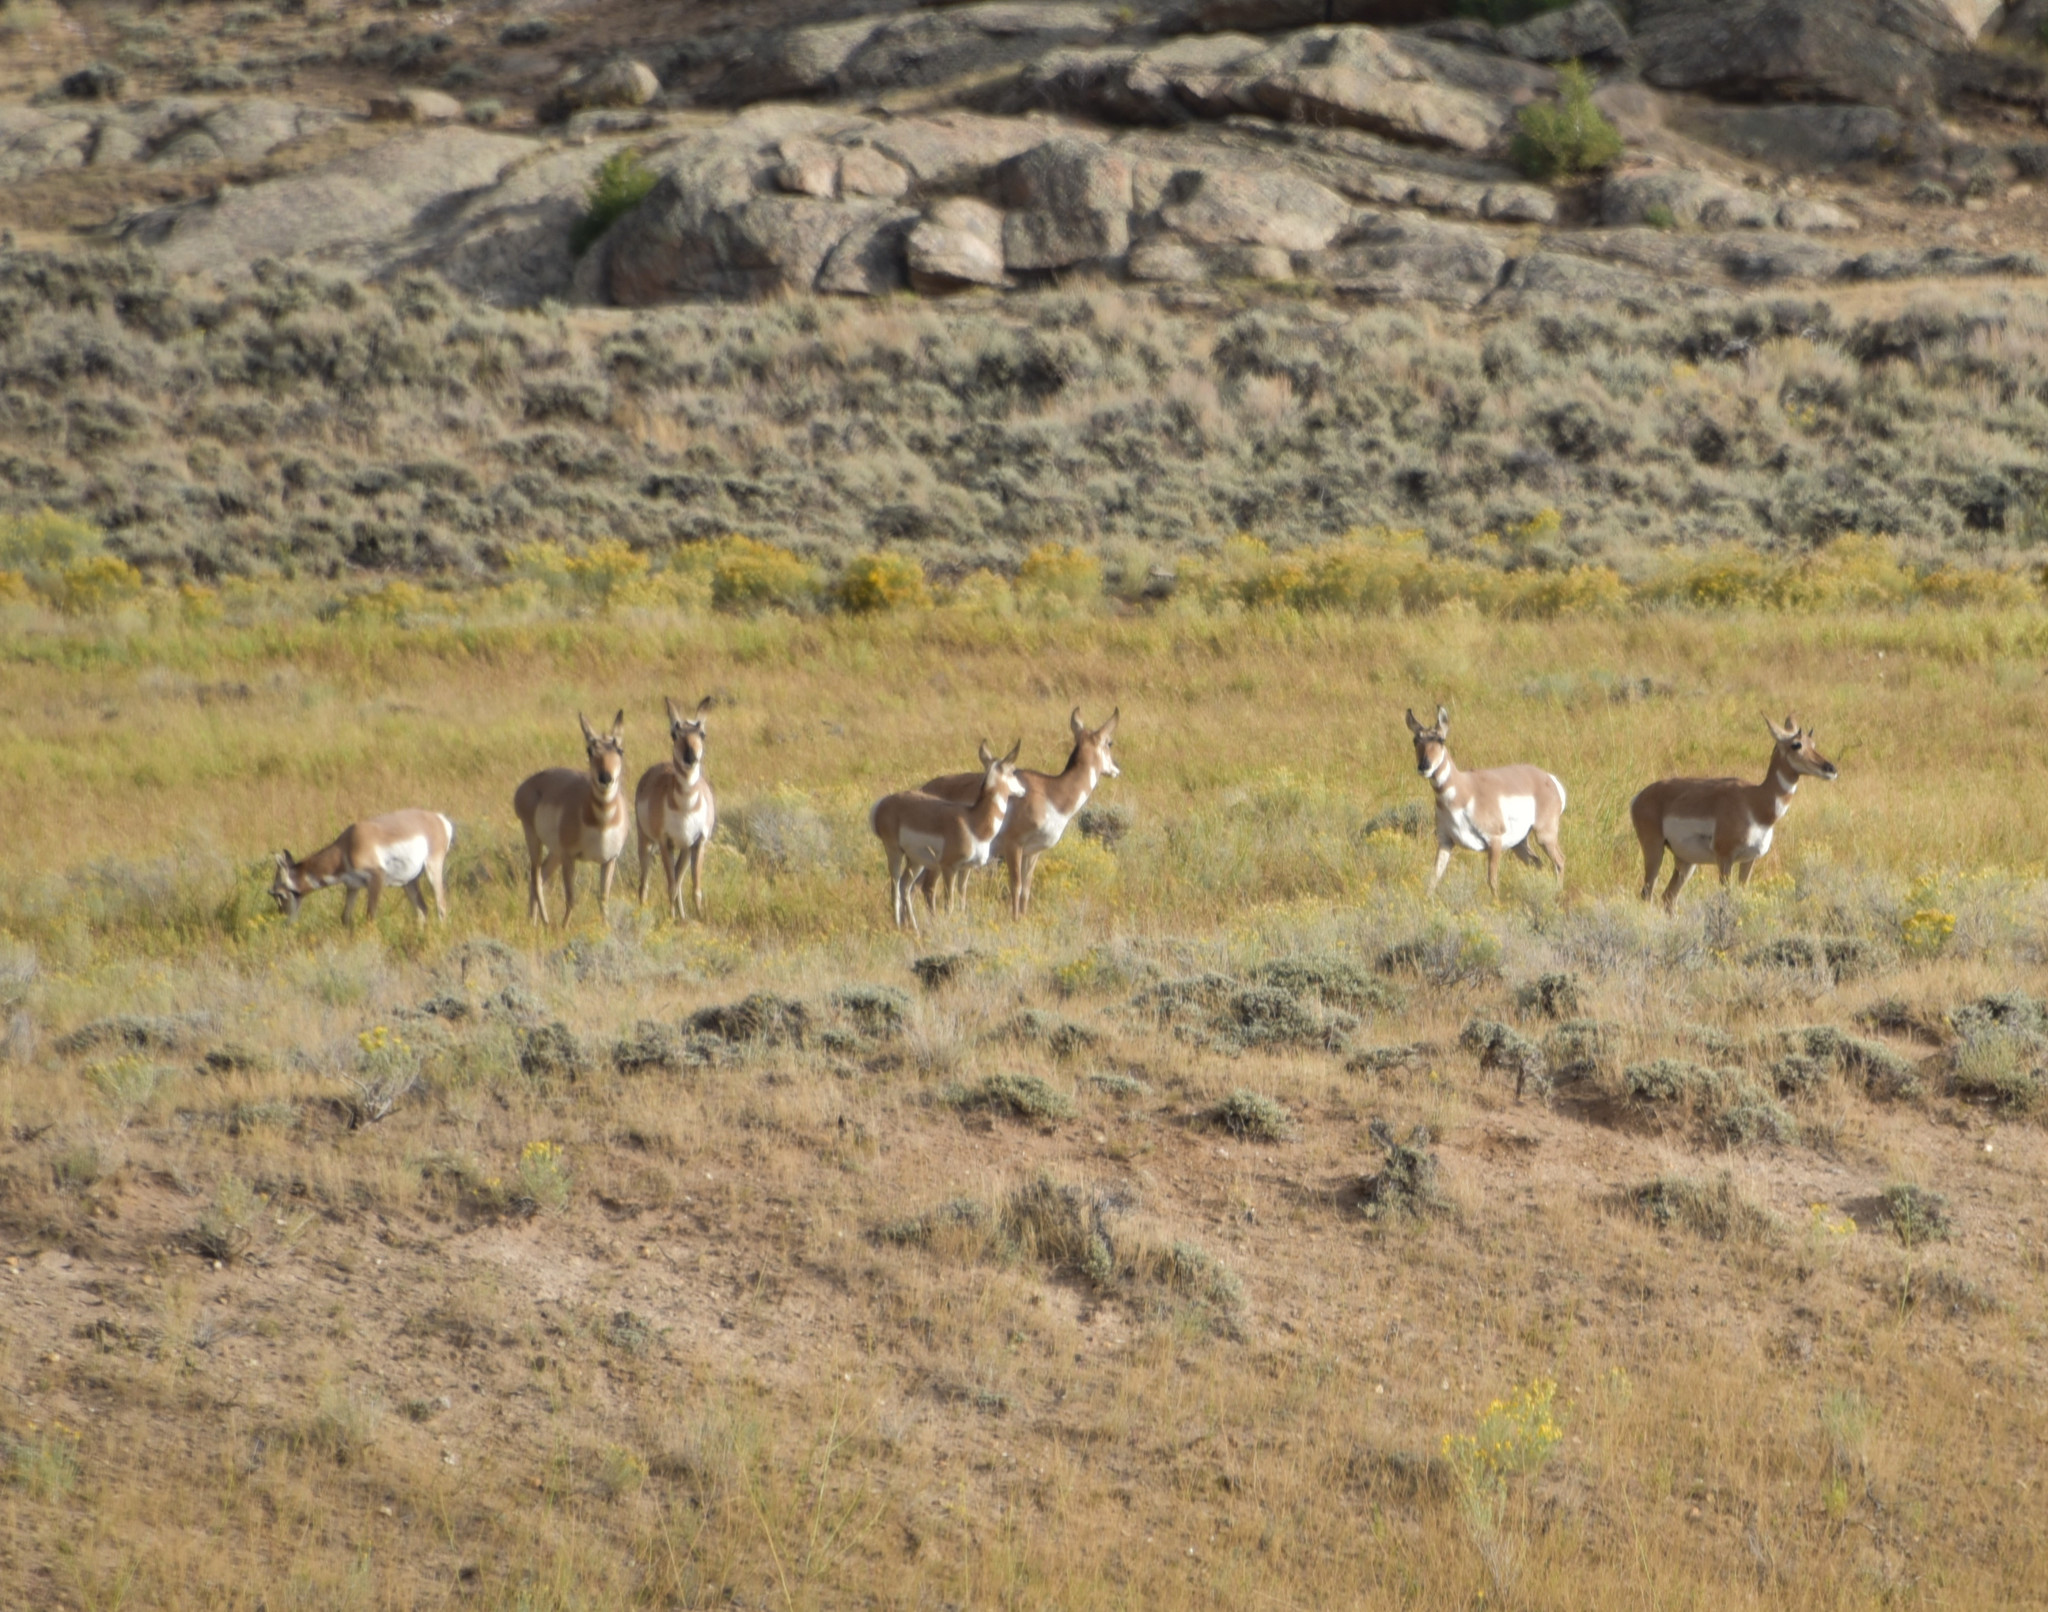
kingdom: Animalia
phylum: Chordata
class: Mammalia
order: Artiodactyla
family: Antilocapridae
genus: Antilocapra
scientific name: Antilocapra americana
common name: Pronghorn
